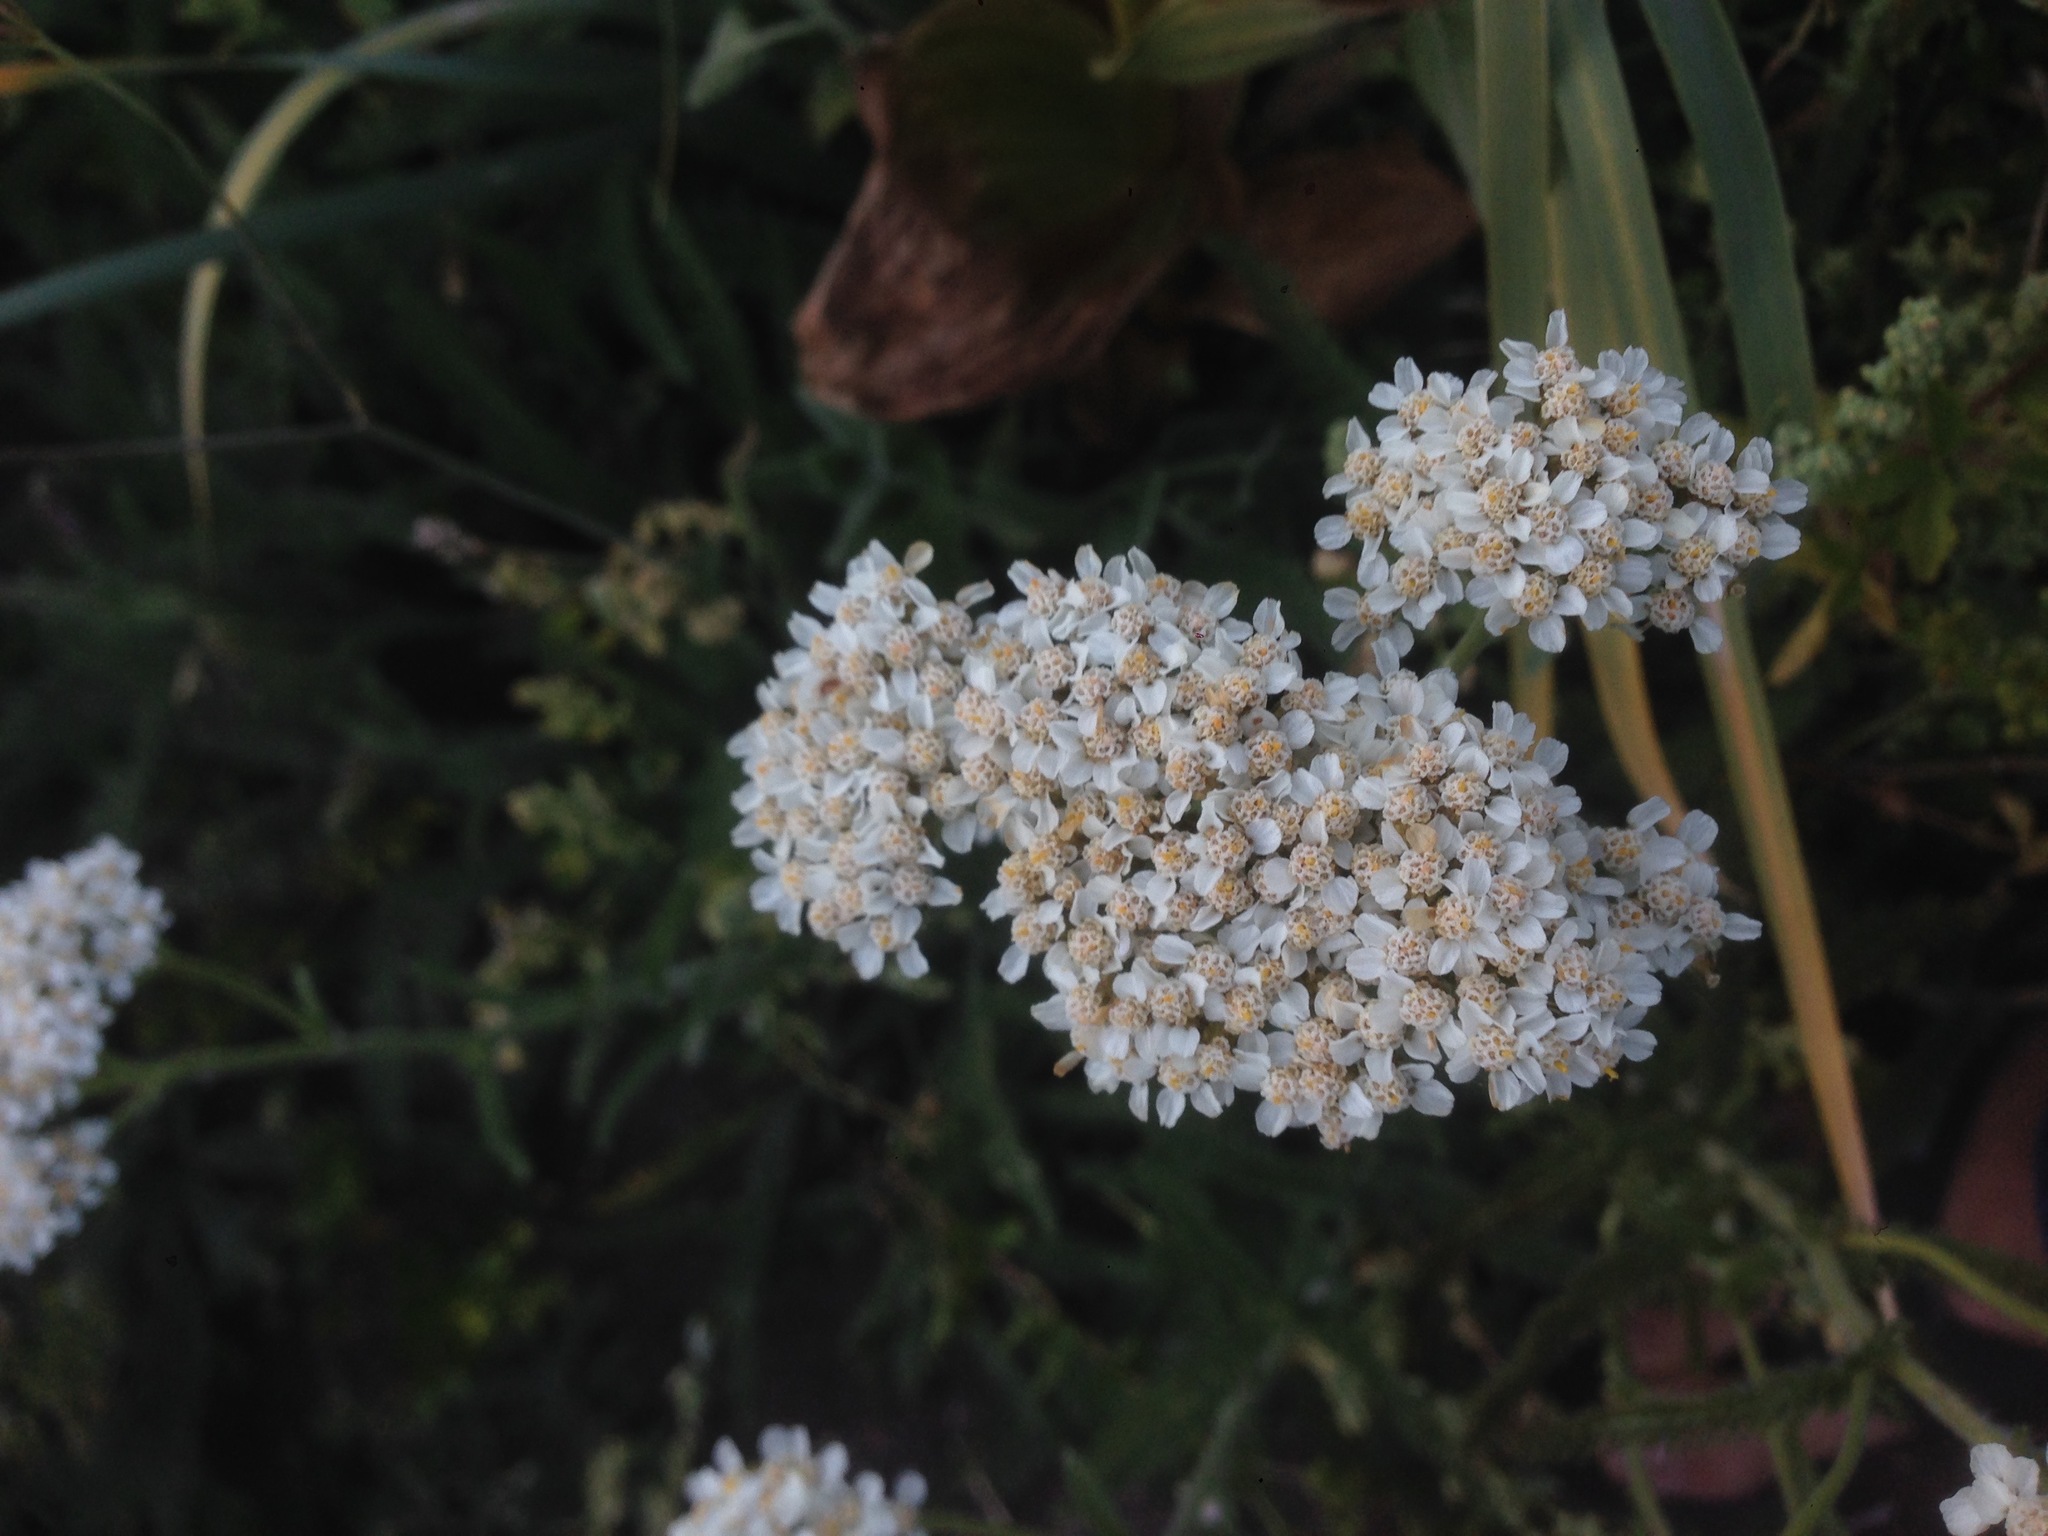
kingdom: Plantae
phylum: Tracheophyta
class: Magnoliopsida
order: Asterales
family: Asteraceae
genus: Achillea
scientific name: Achillea millefolium
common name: Yarrow
